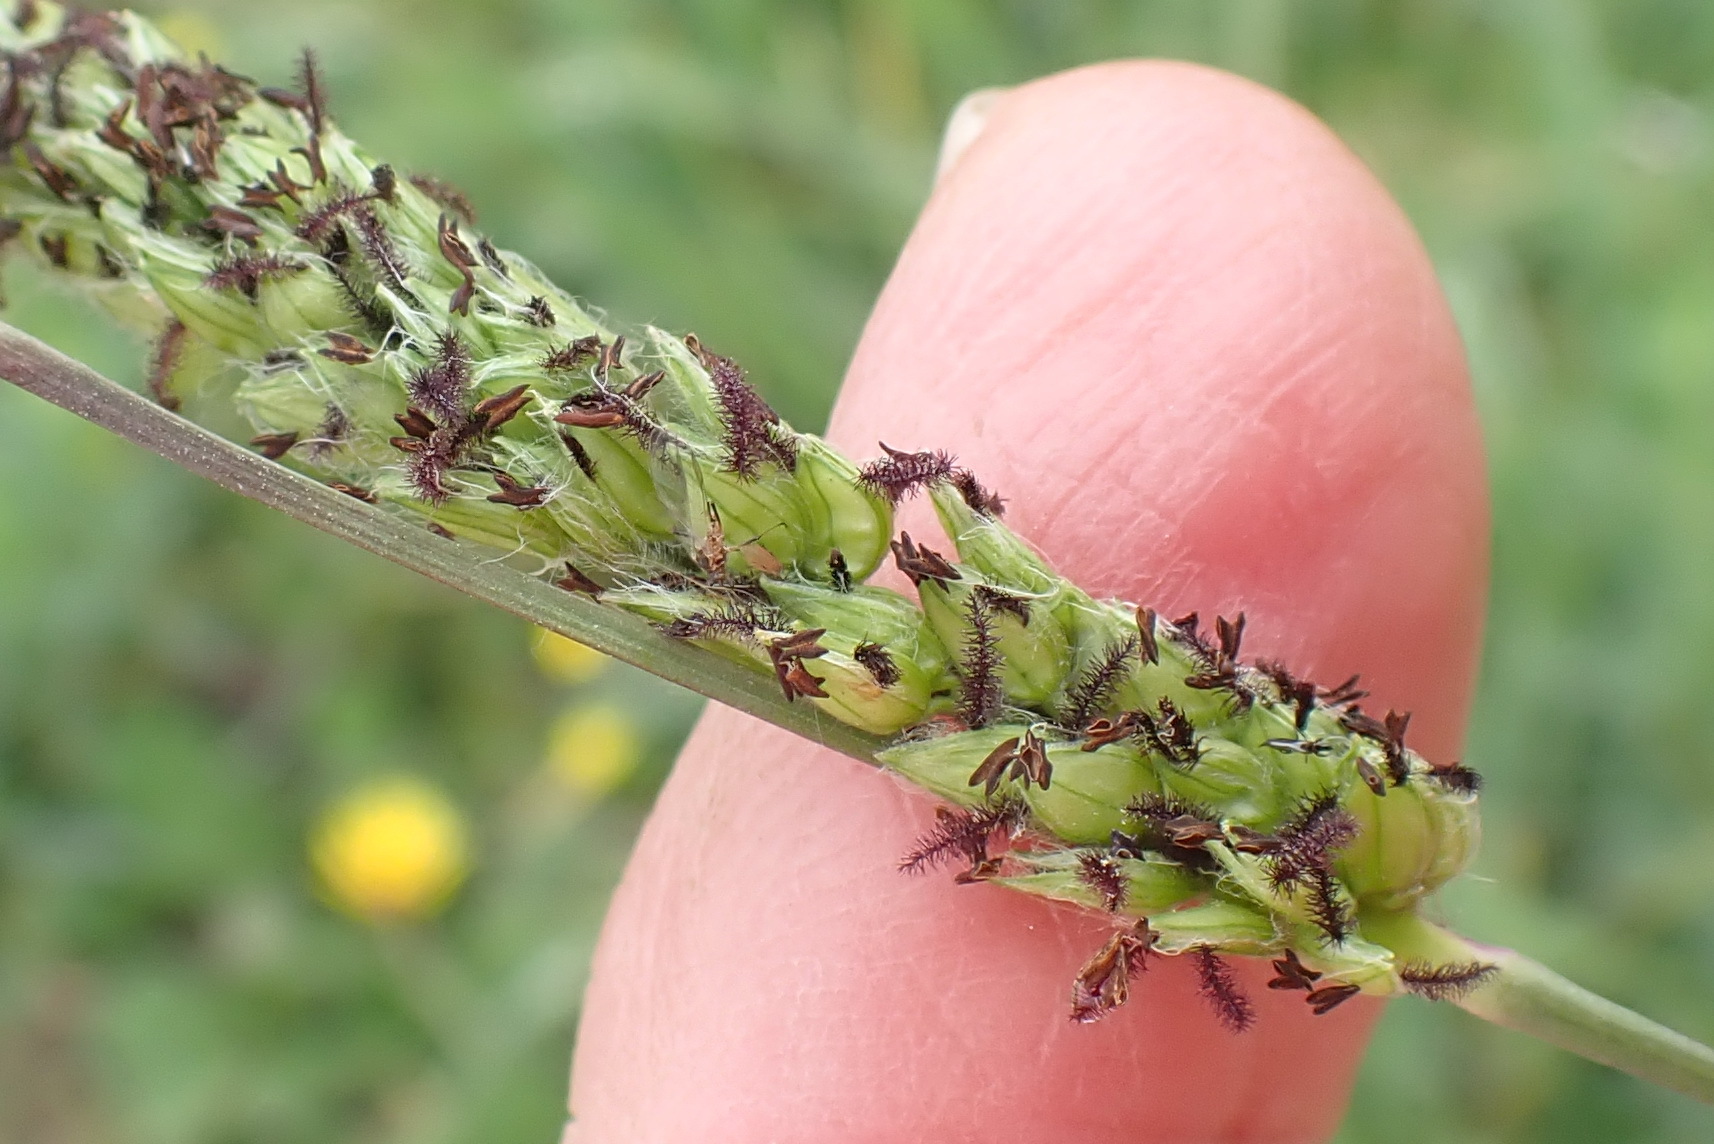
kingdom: Plantae
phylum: Tracheophyta
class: Liliopsida
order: Poales
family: Poaceae
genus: Paspalum
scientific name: Paspalum dilatatum
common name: Dallisgrass
